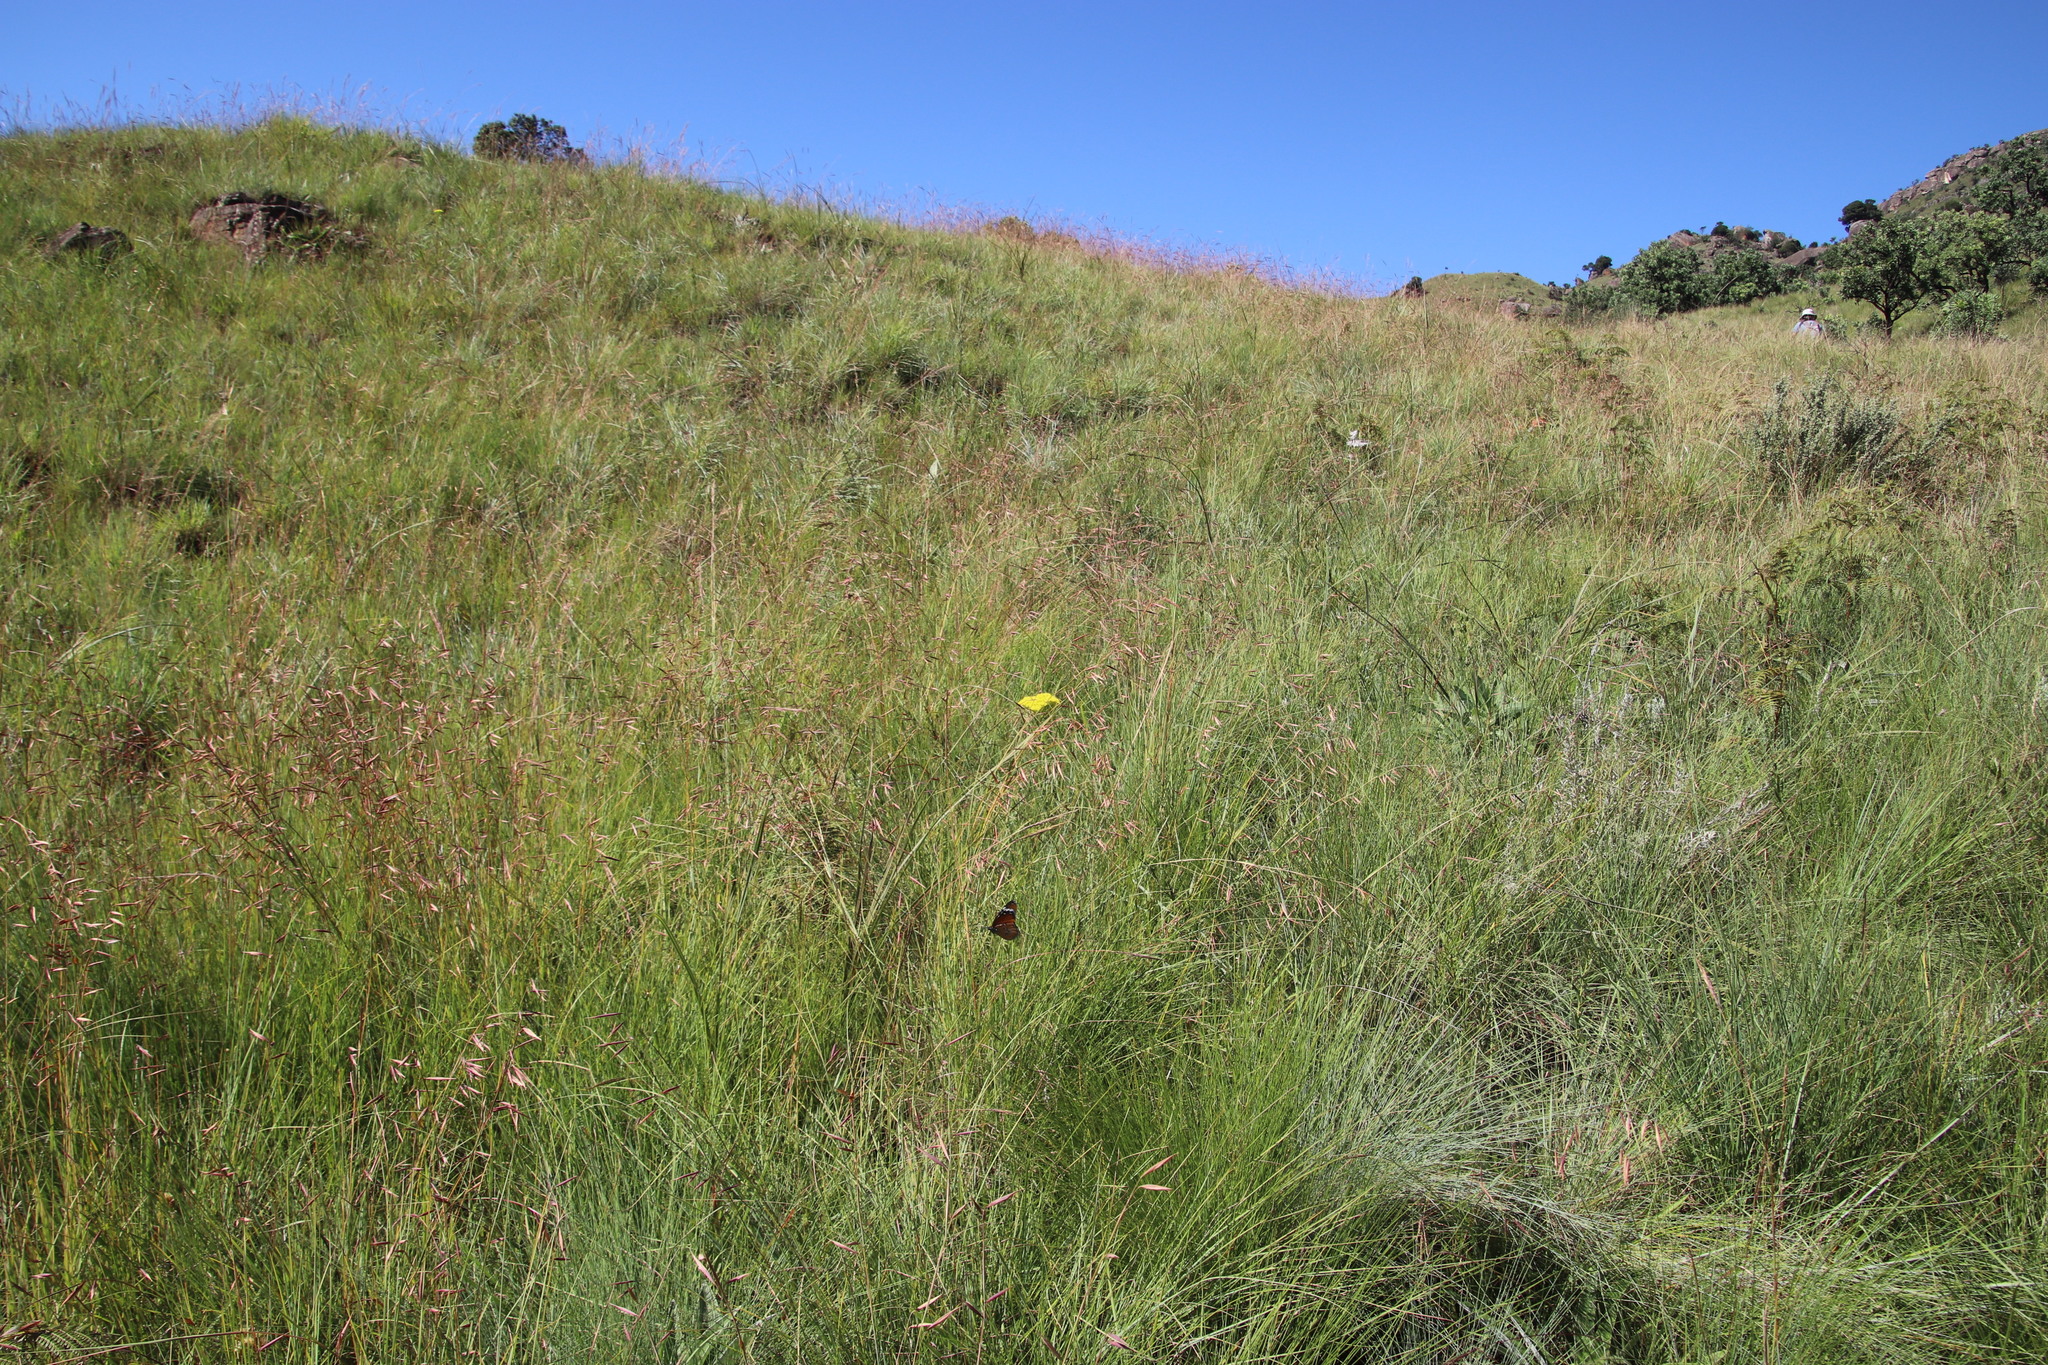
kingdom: Plantae
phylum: Tracheophyta
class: Magnoliopsida
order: Saxifragales
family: Crassulaceae
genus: Crassula
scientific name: Crassula vaginata
